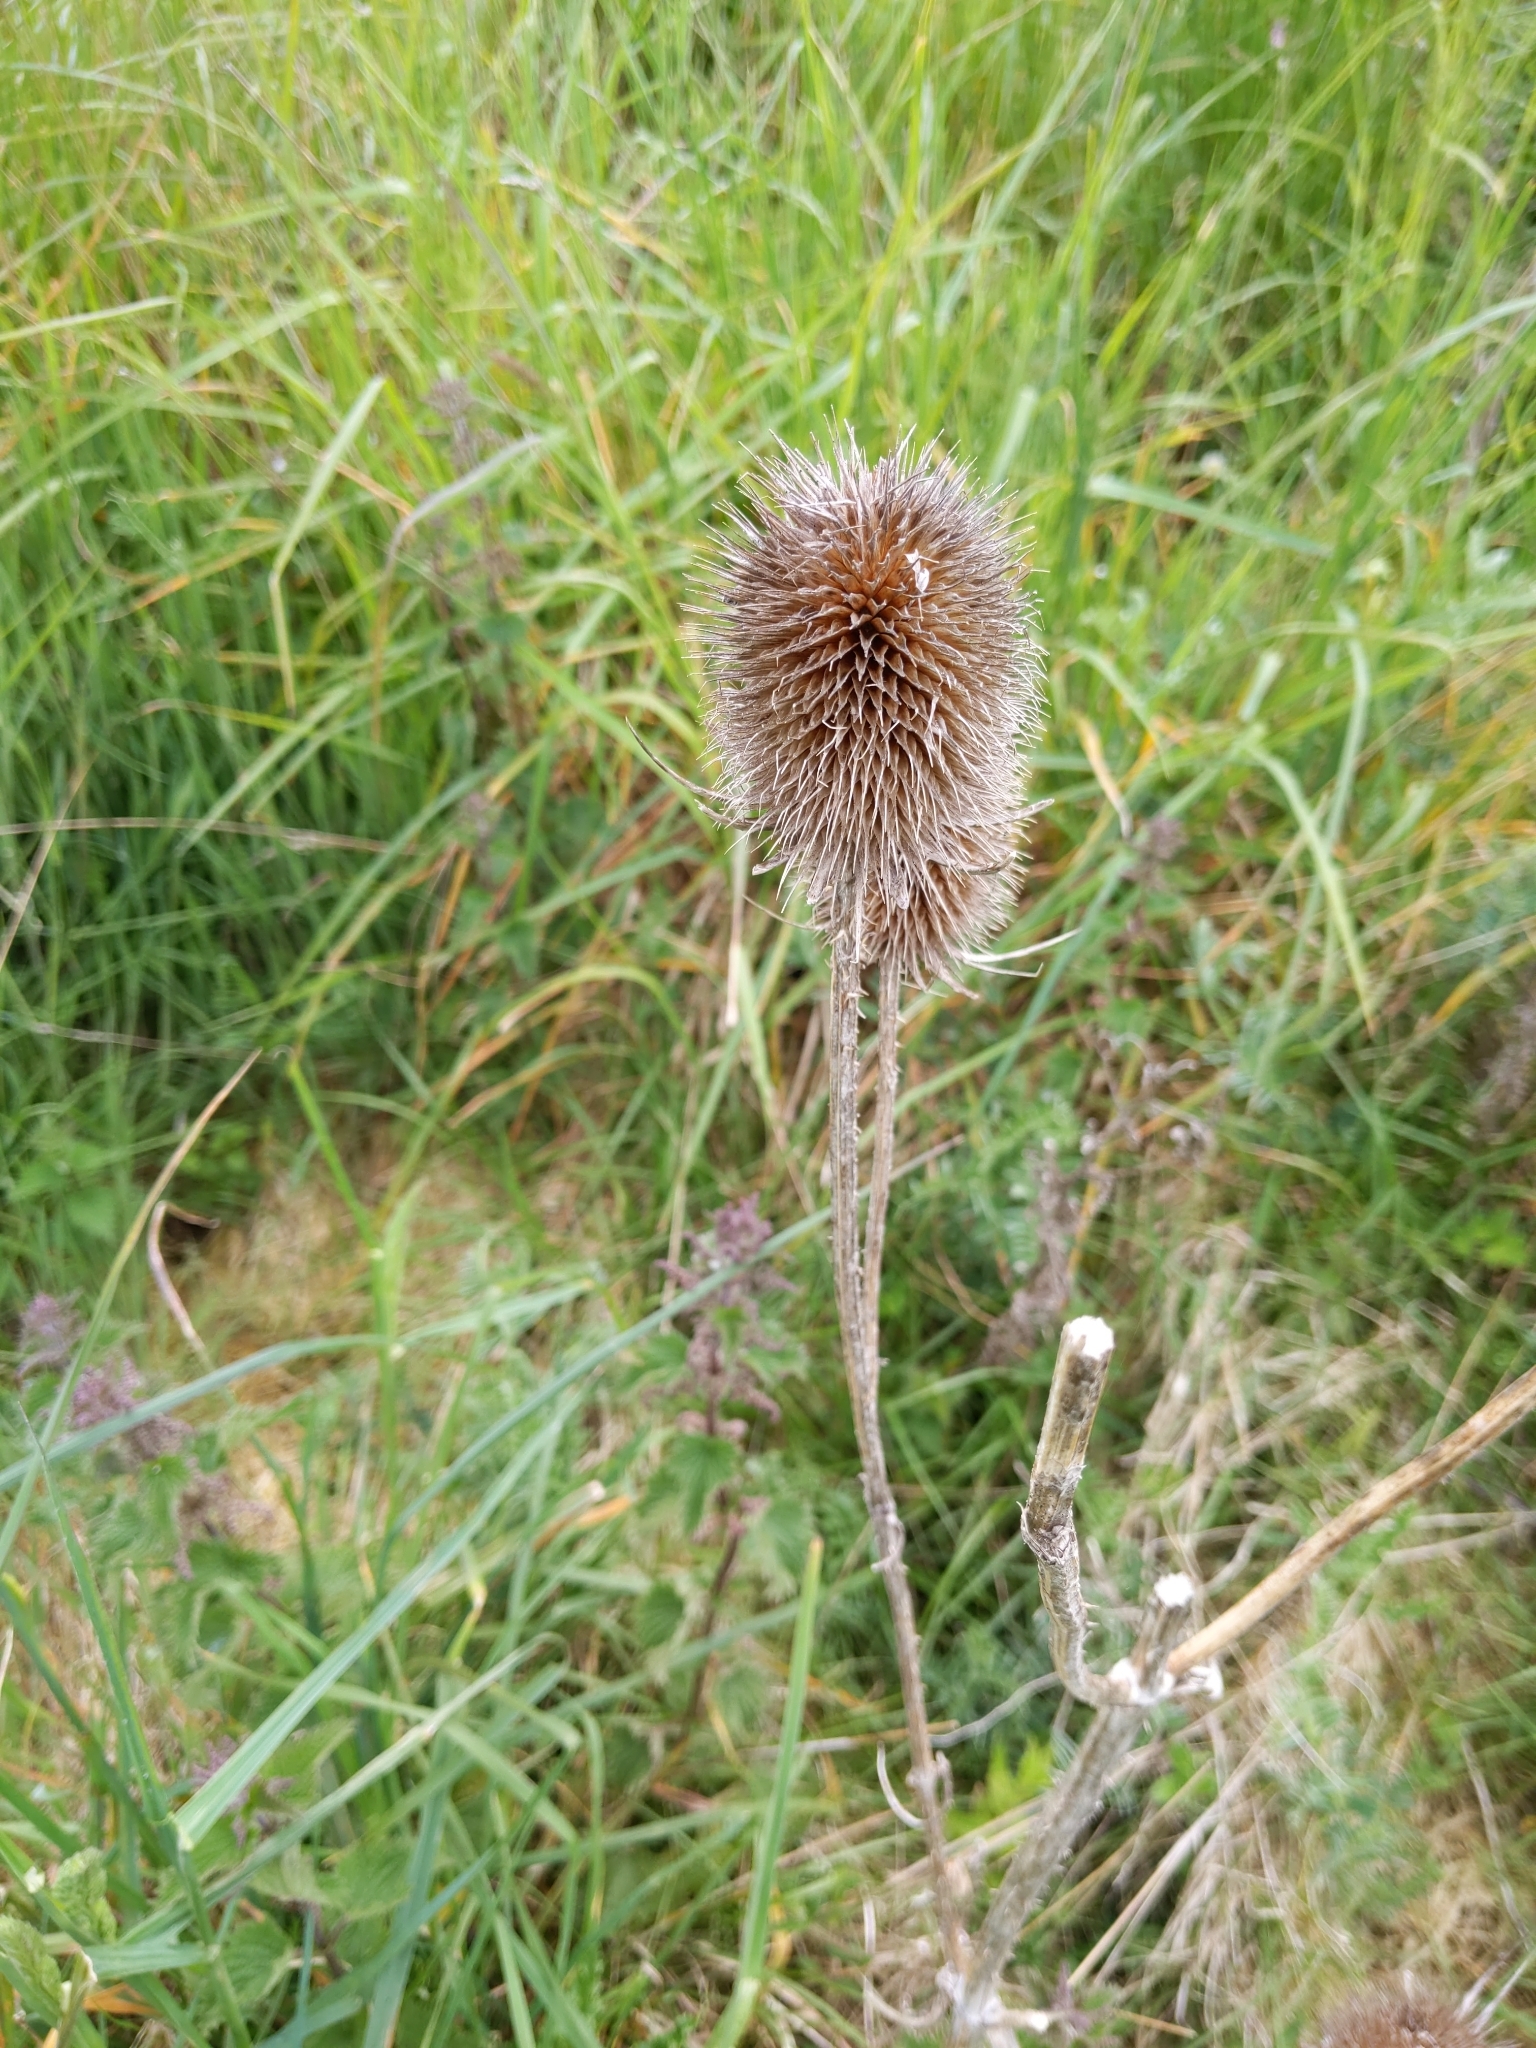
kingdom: Plantae
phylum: Tracheophyta
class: Magnoliopsida
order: Dipsacales
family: Caprifoliaceae
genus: Dipsacus
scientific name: Dipsacus fullonum
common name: Teasel
